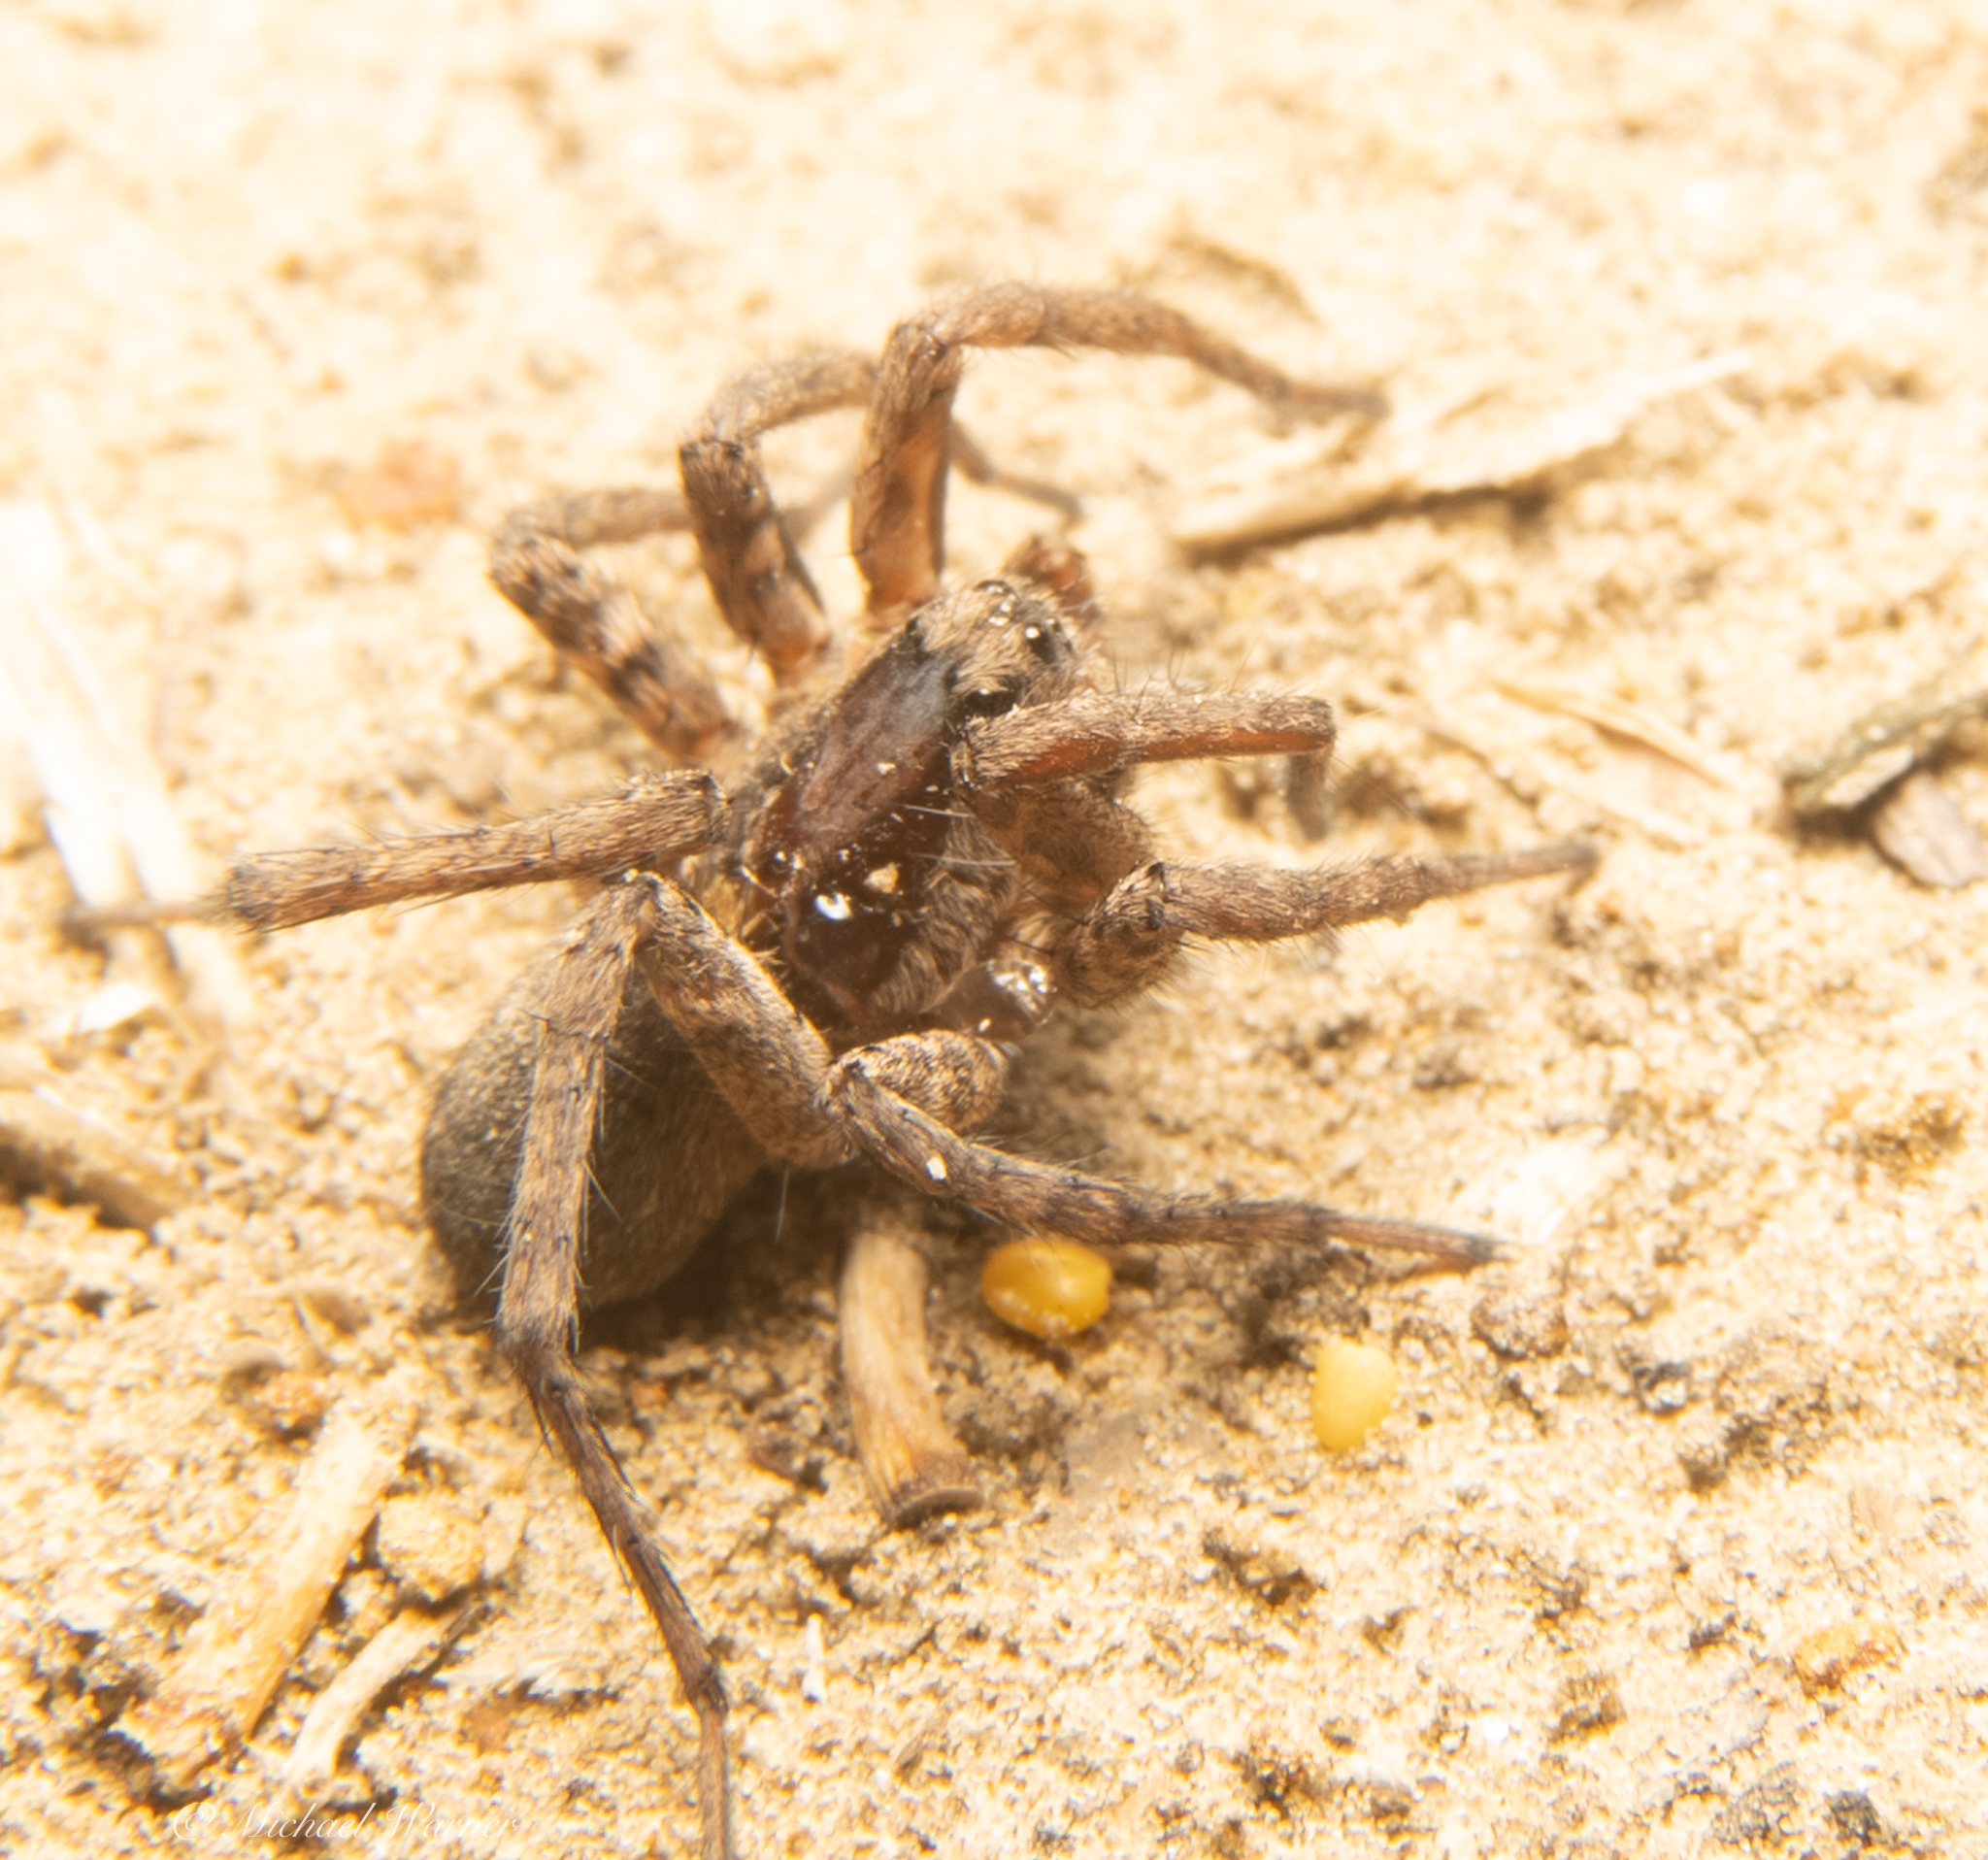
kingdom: Animalia
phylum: Arthropoda
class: Arachnida
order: Araneae
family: Lycosidae
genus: Alopecosa
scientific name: Alopecosa kochi
